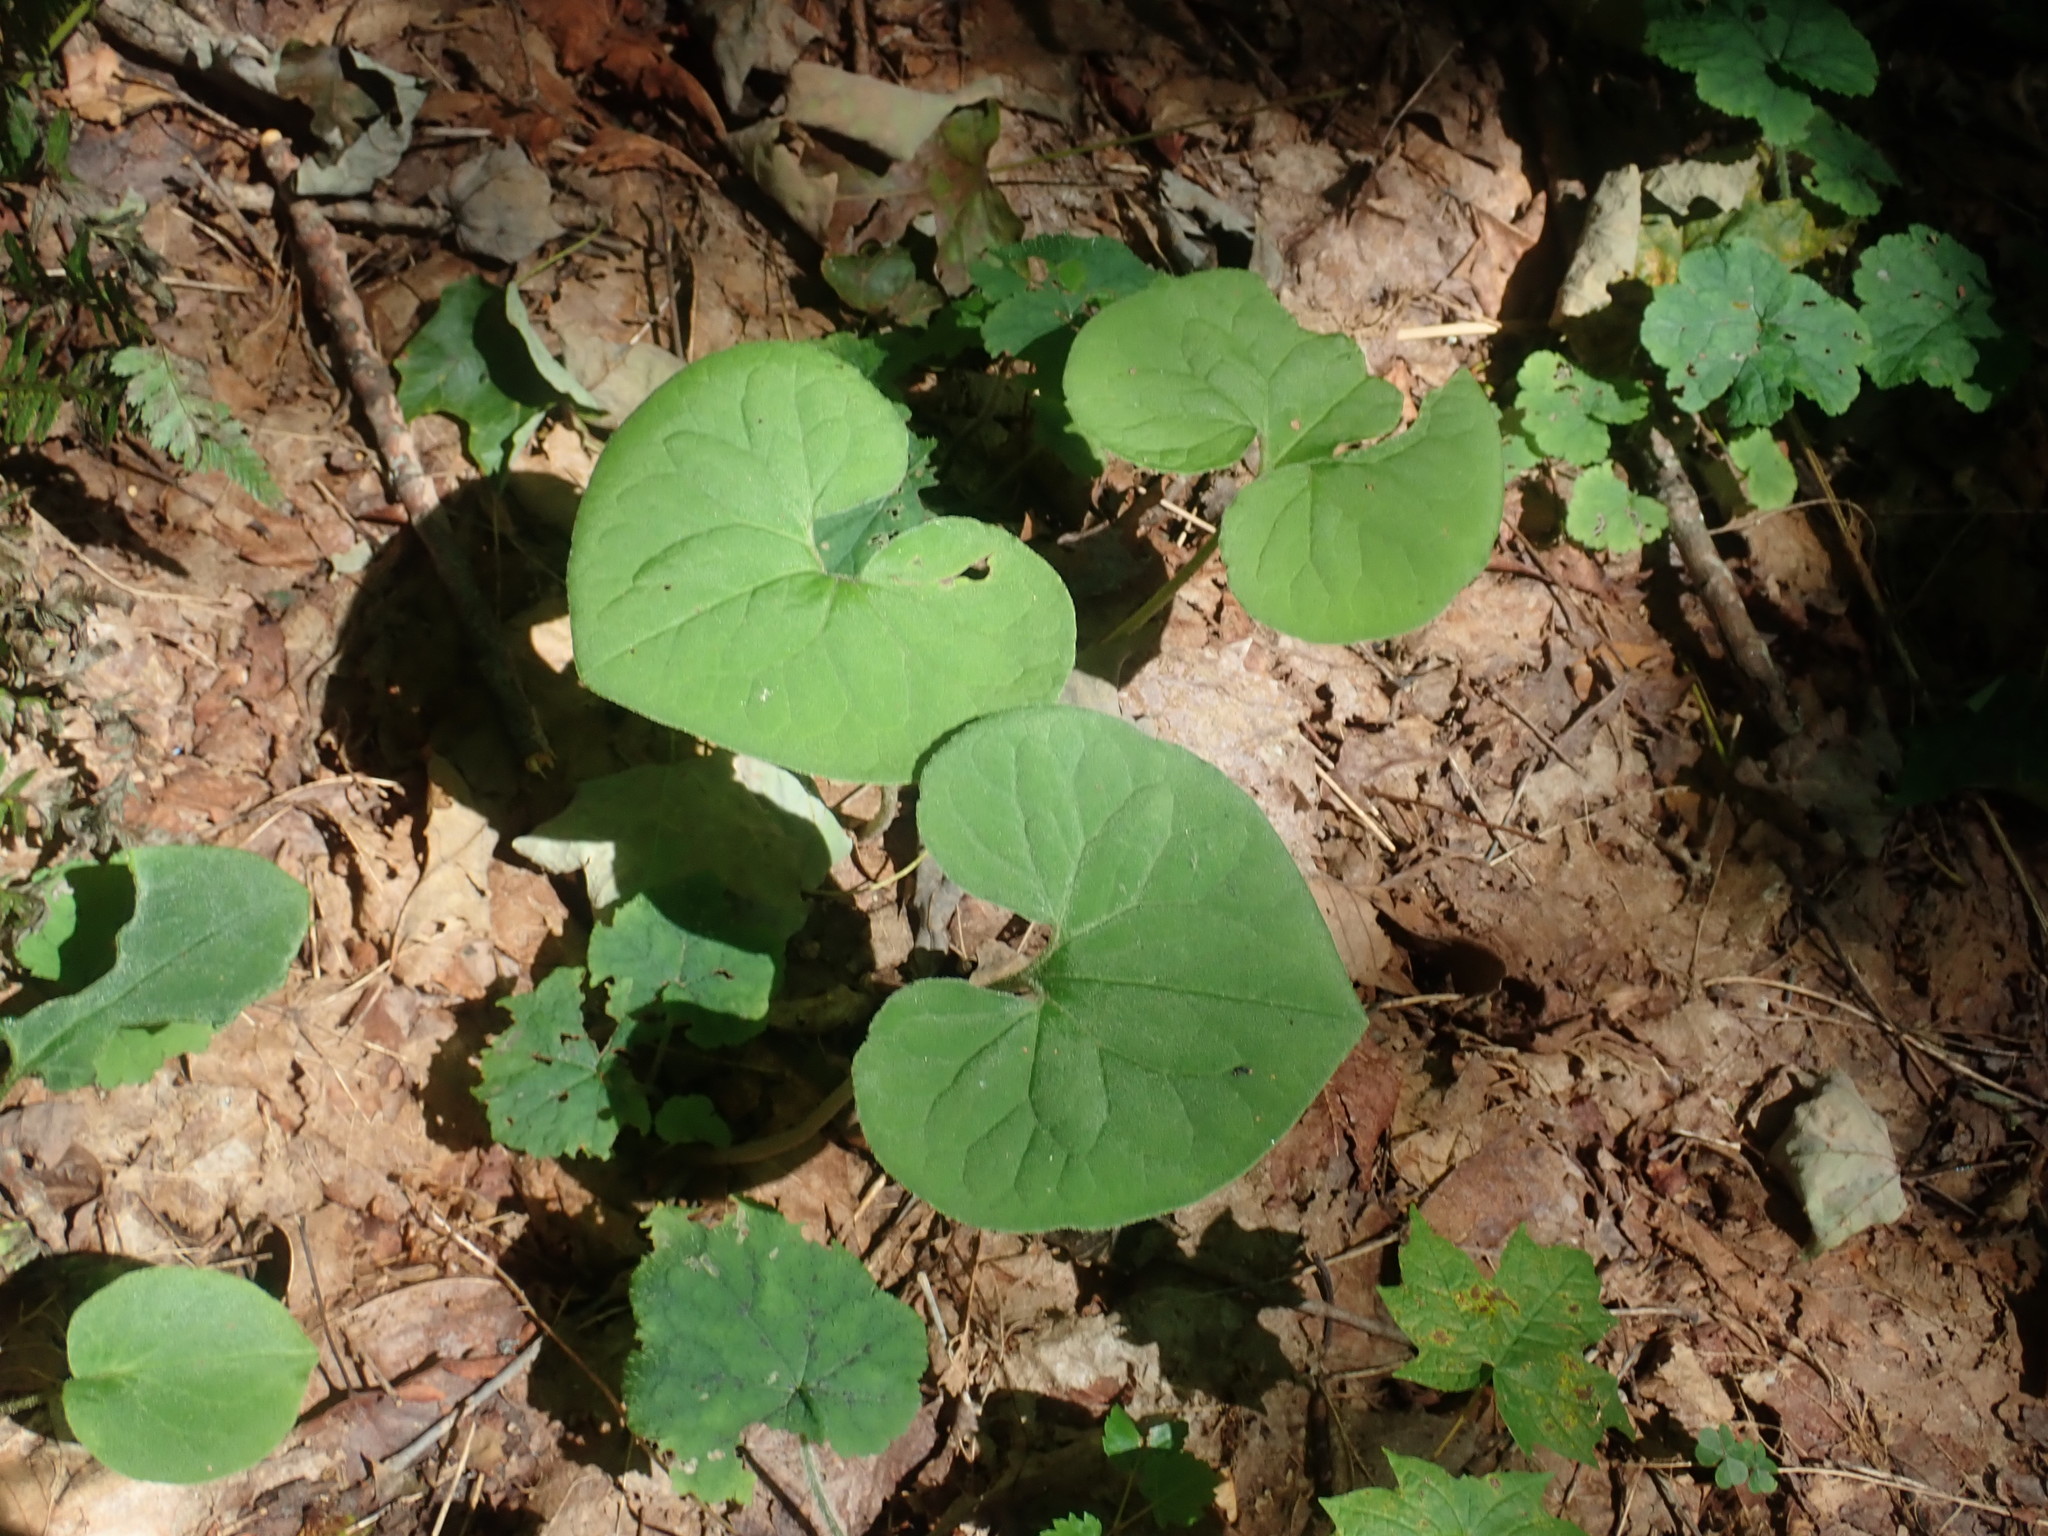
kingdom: Plantae
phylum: Tracheophyta
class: Magnoliopsida
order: Piperales
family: Aristolochiaceae
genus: Asarum
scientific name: Asarum canadense
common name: Wild ginger
